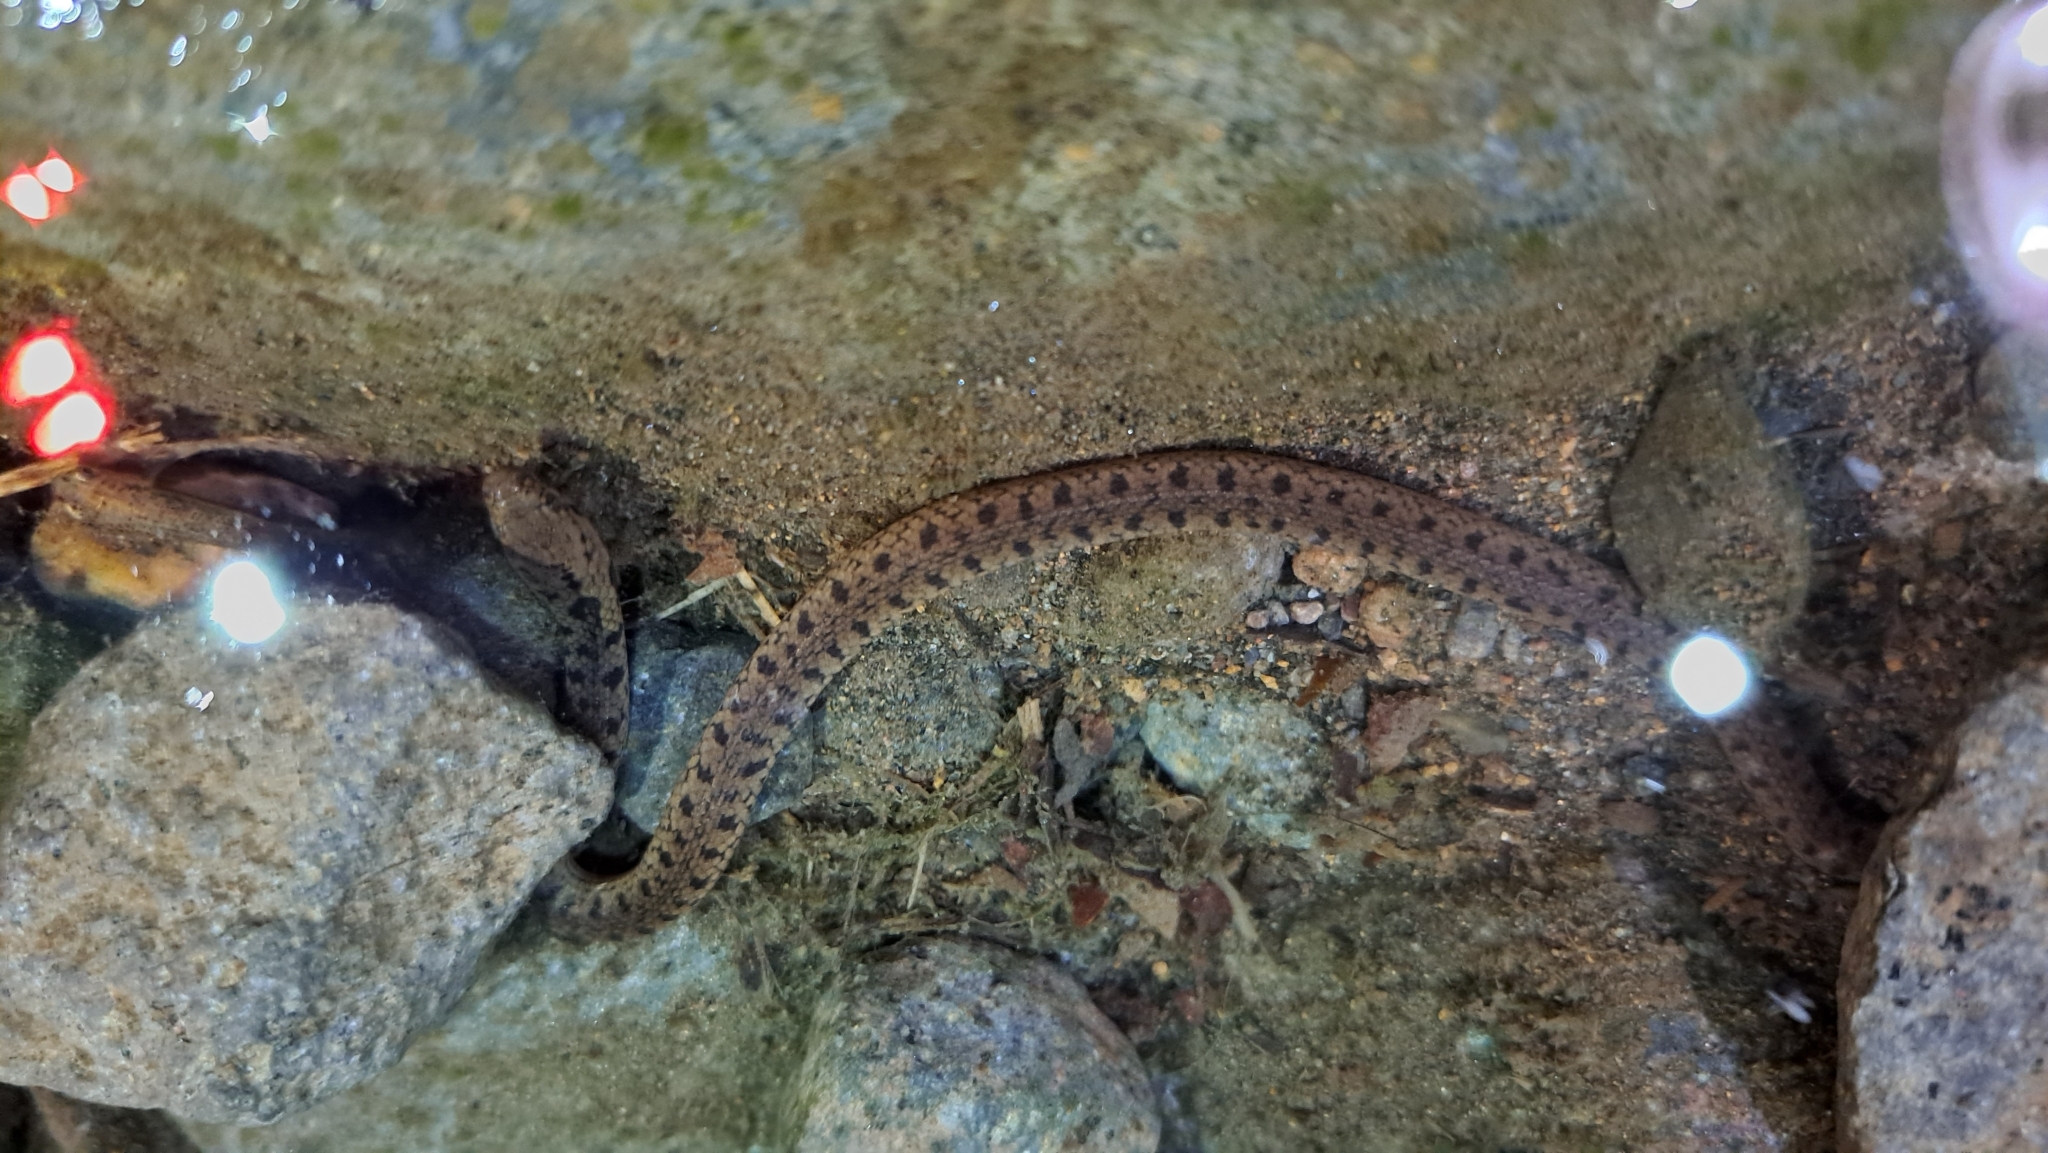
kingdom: Animalia
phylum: Chordata
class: Squamata
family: Colubridae
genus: Hydromorphus
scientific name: Hydromorphus concolor
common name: Costa rica water snake
